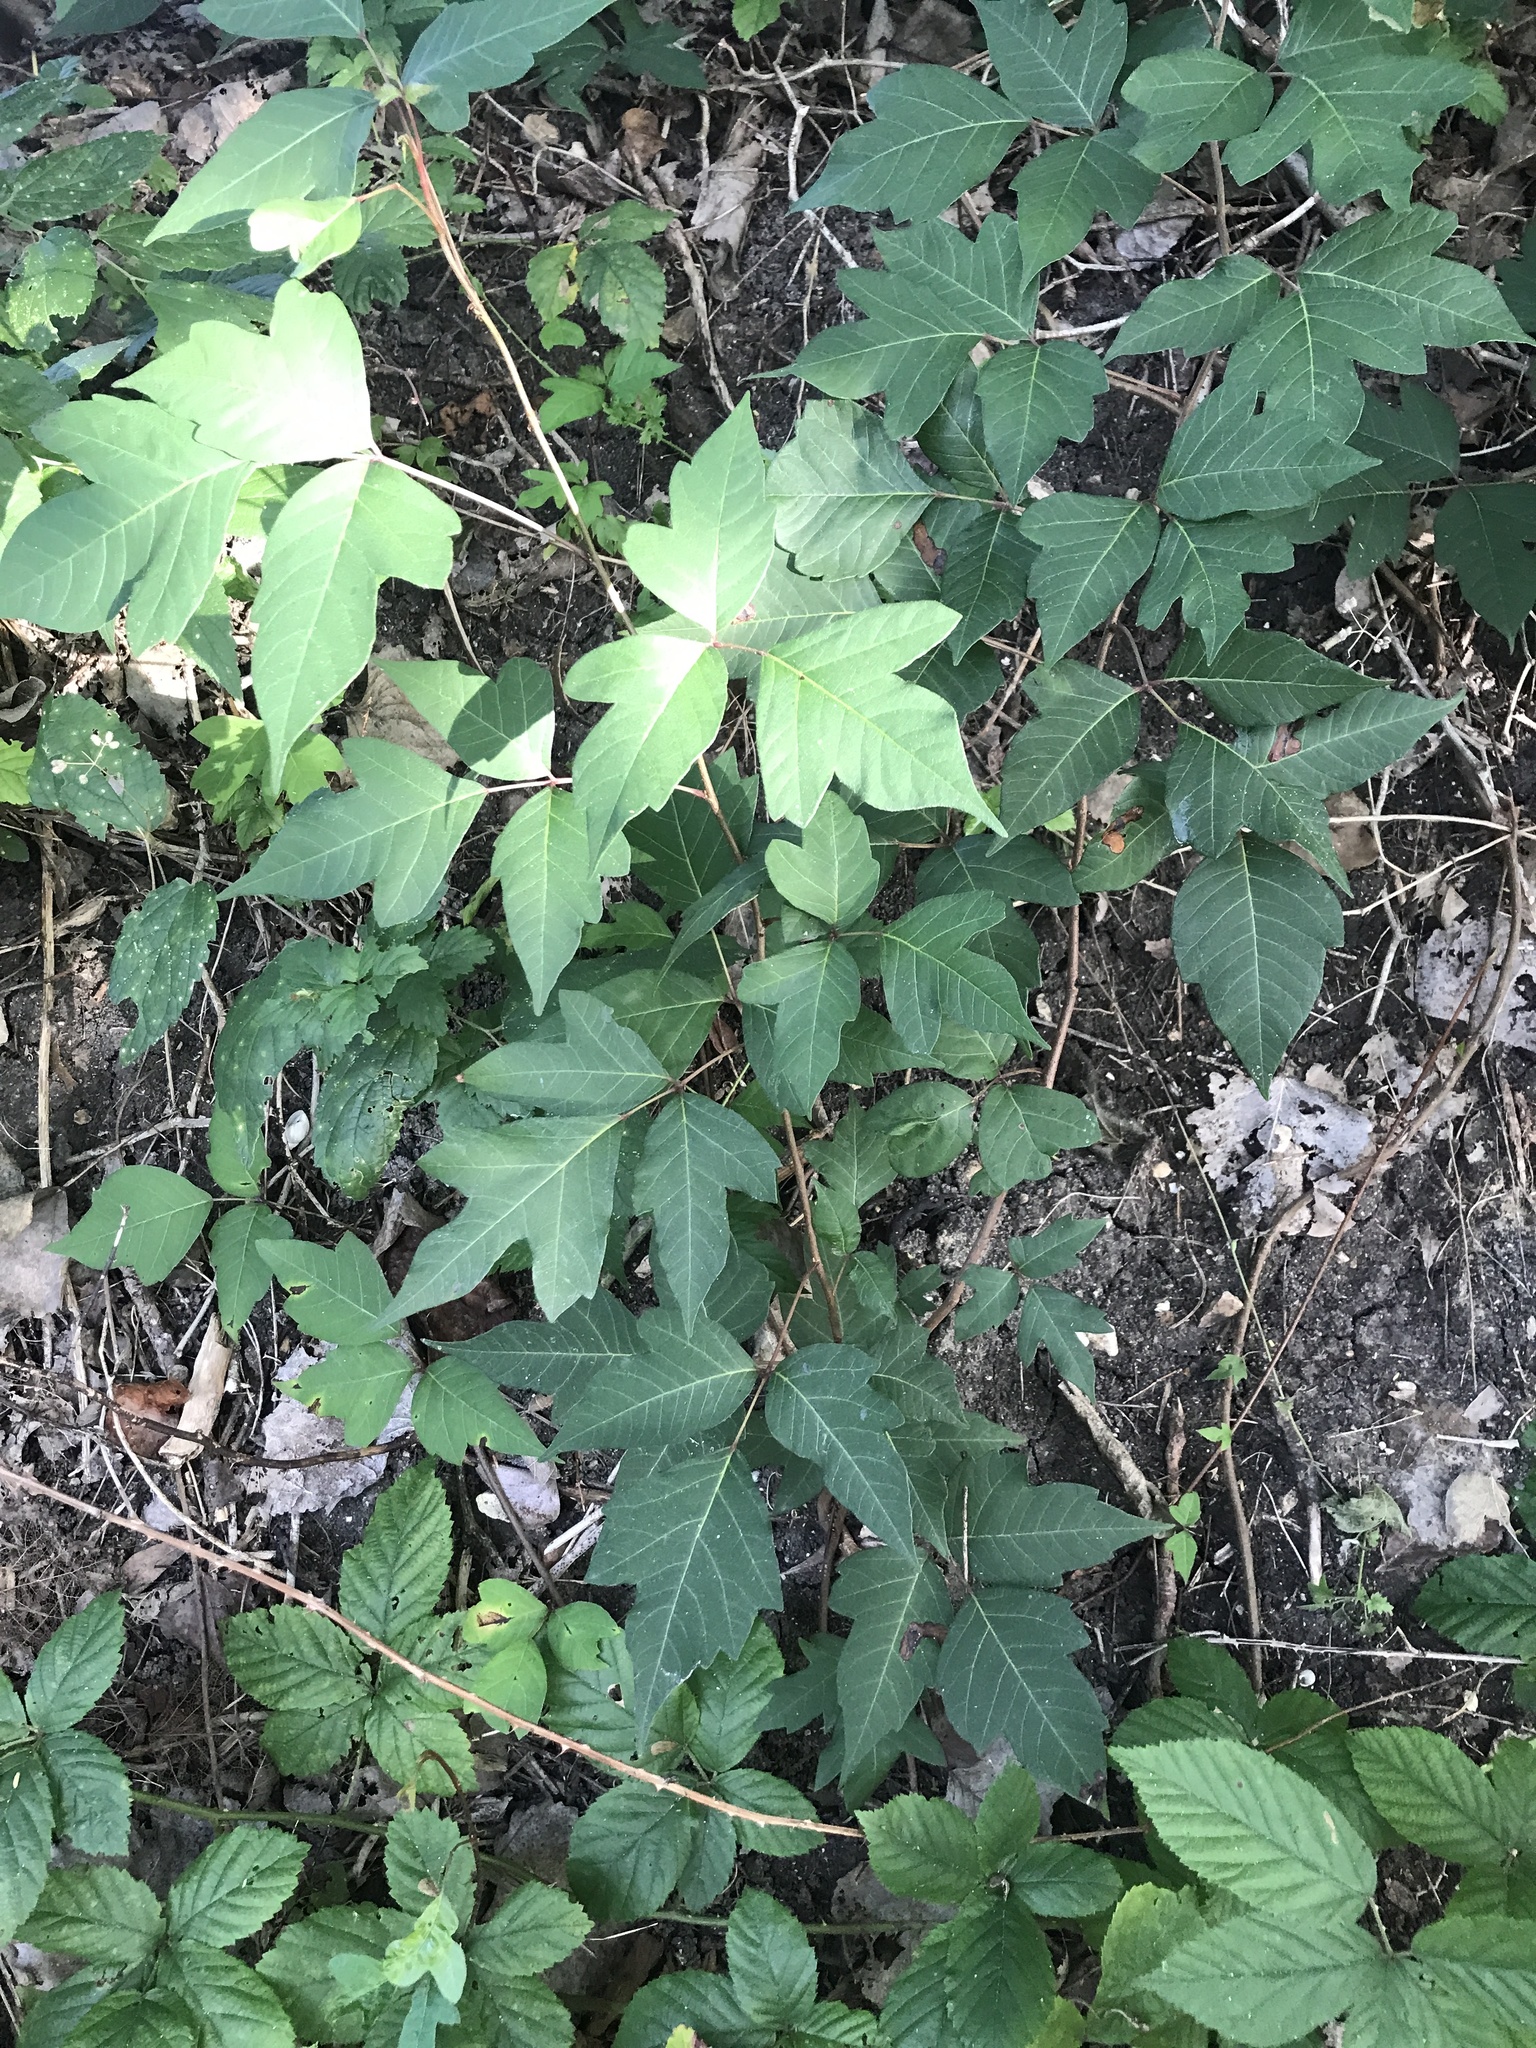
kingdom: Plantae
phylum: Tracheophyta
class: Magnoliopsida
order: Sapindales
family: Anacardiaceae
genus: Toxicodendron
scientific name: Toxicodendron radicans
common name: Poison ivy
